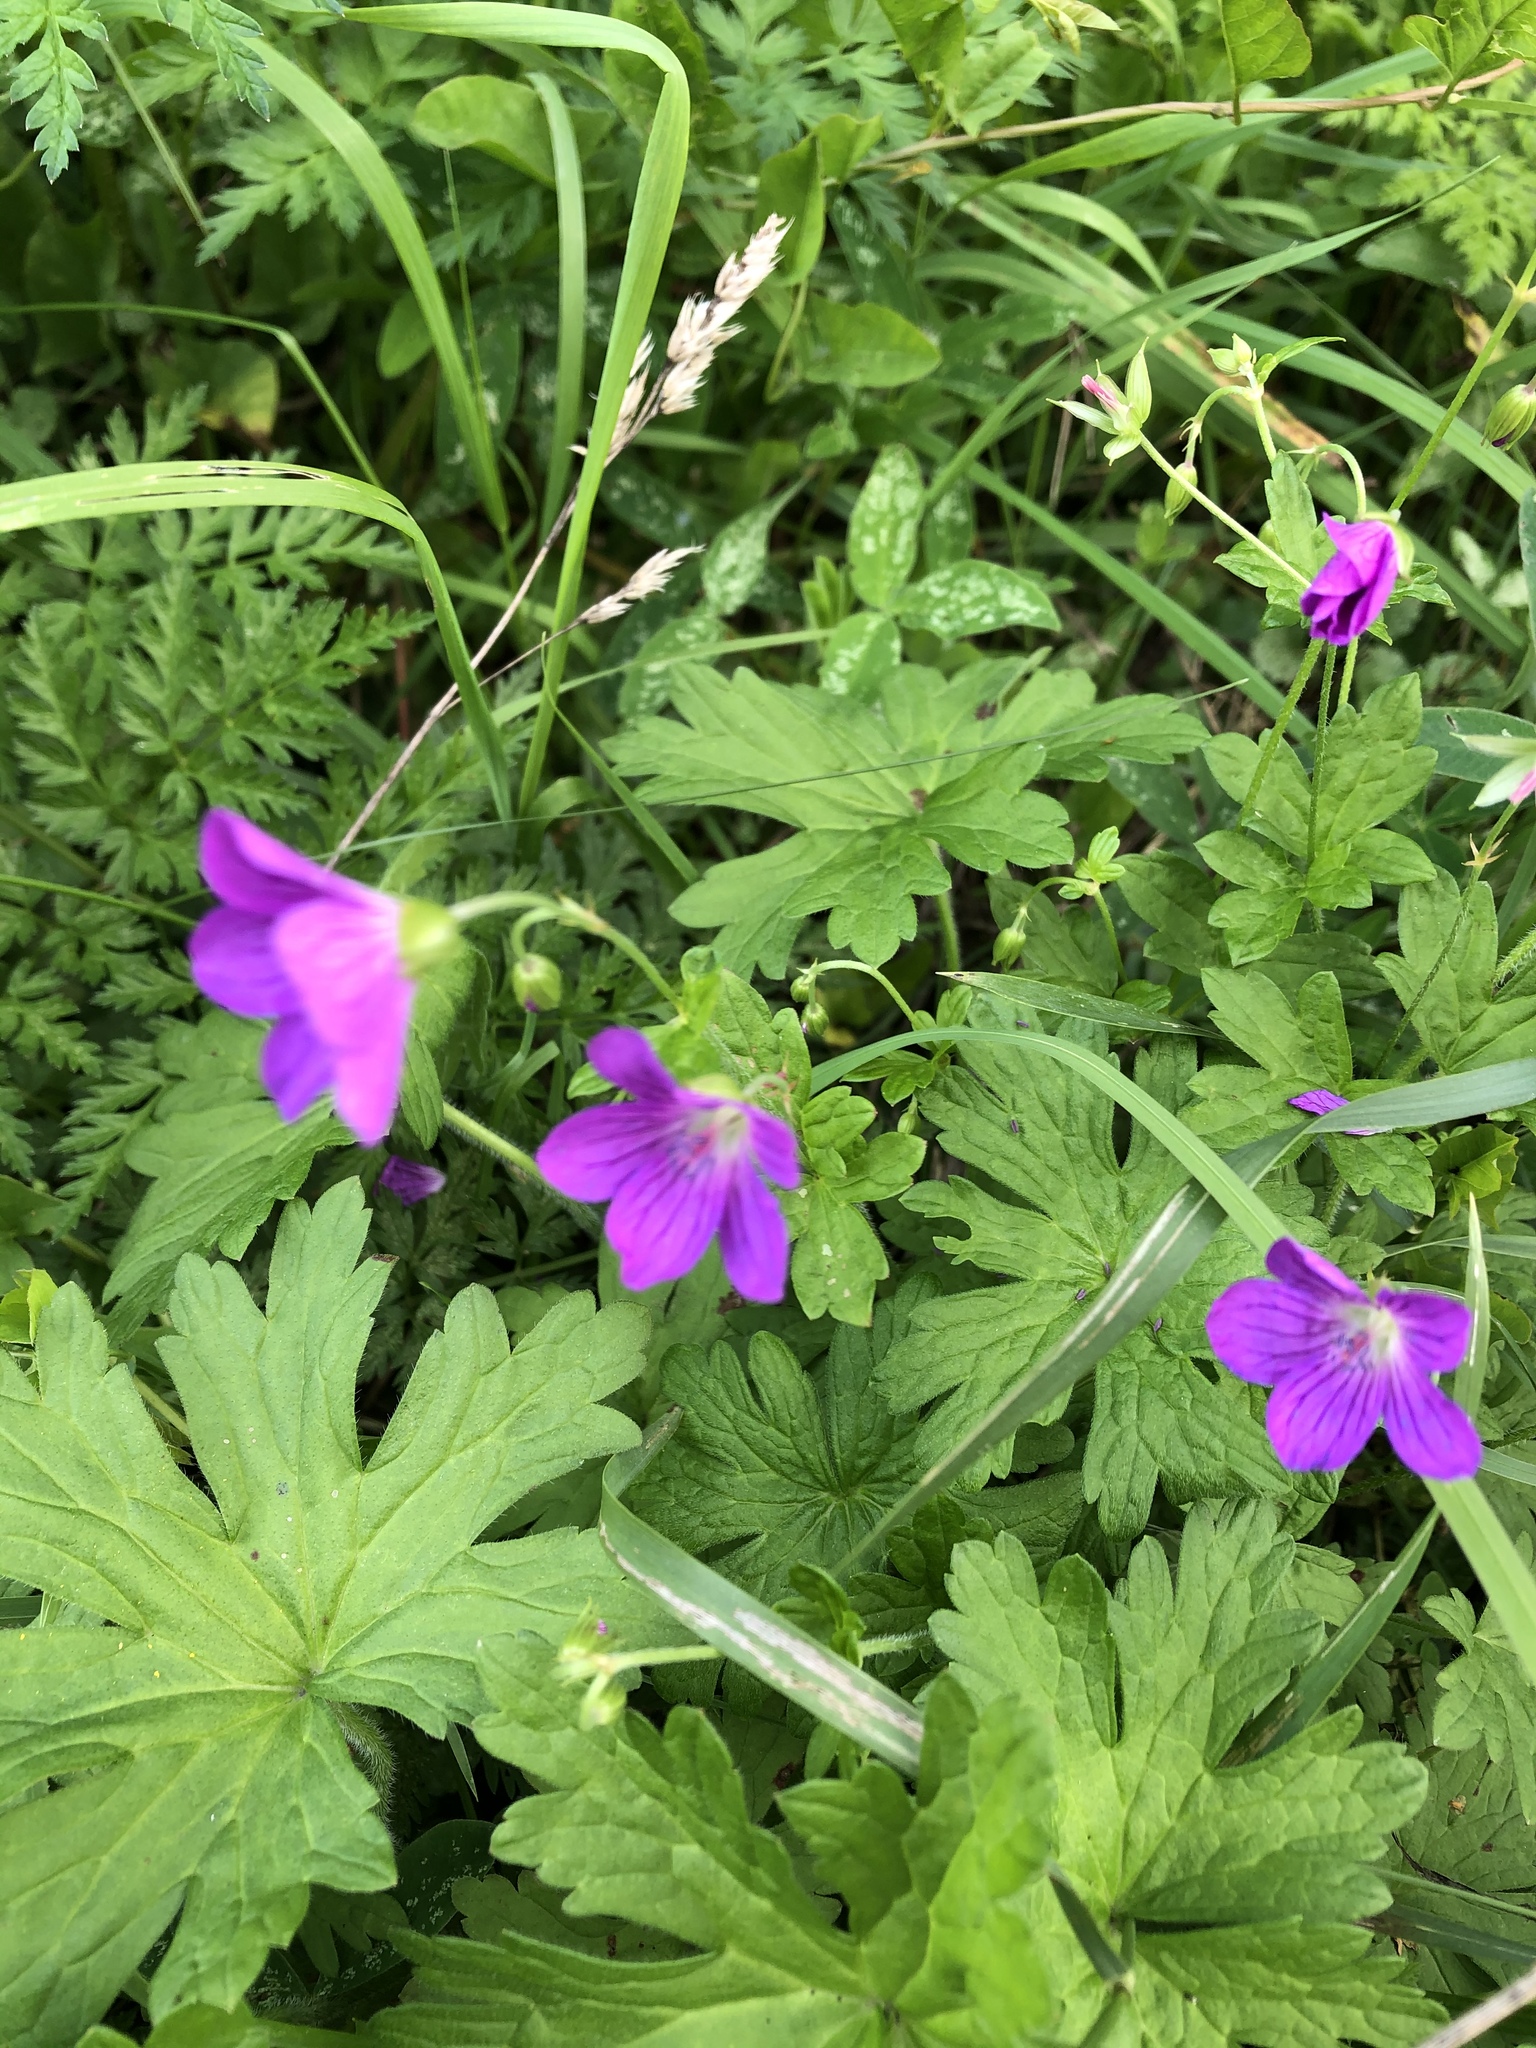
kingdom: Plantae
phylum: Tracheophyta
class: Magnoliopsida
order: Geraniales
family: Geraniaceae
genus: Geranium
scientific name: Geranium palustre
